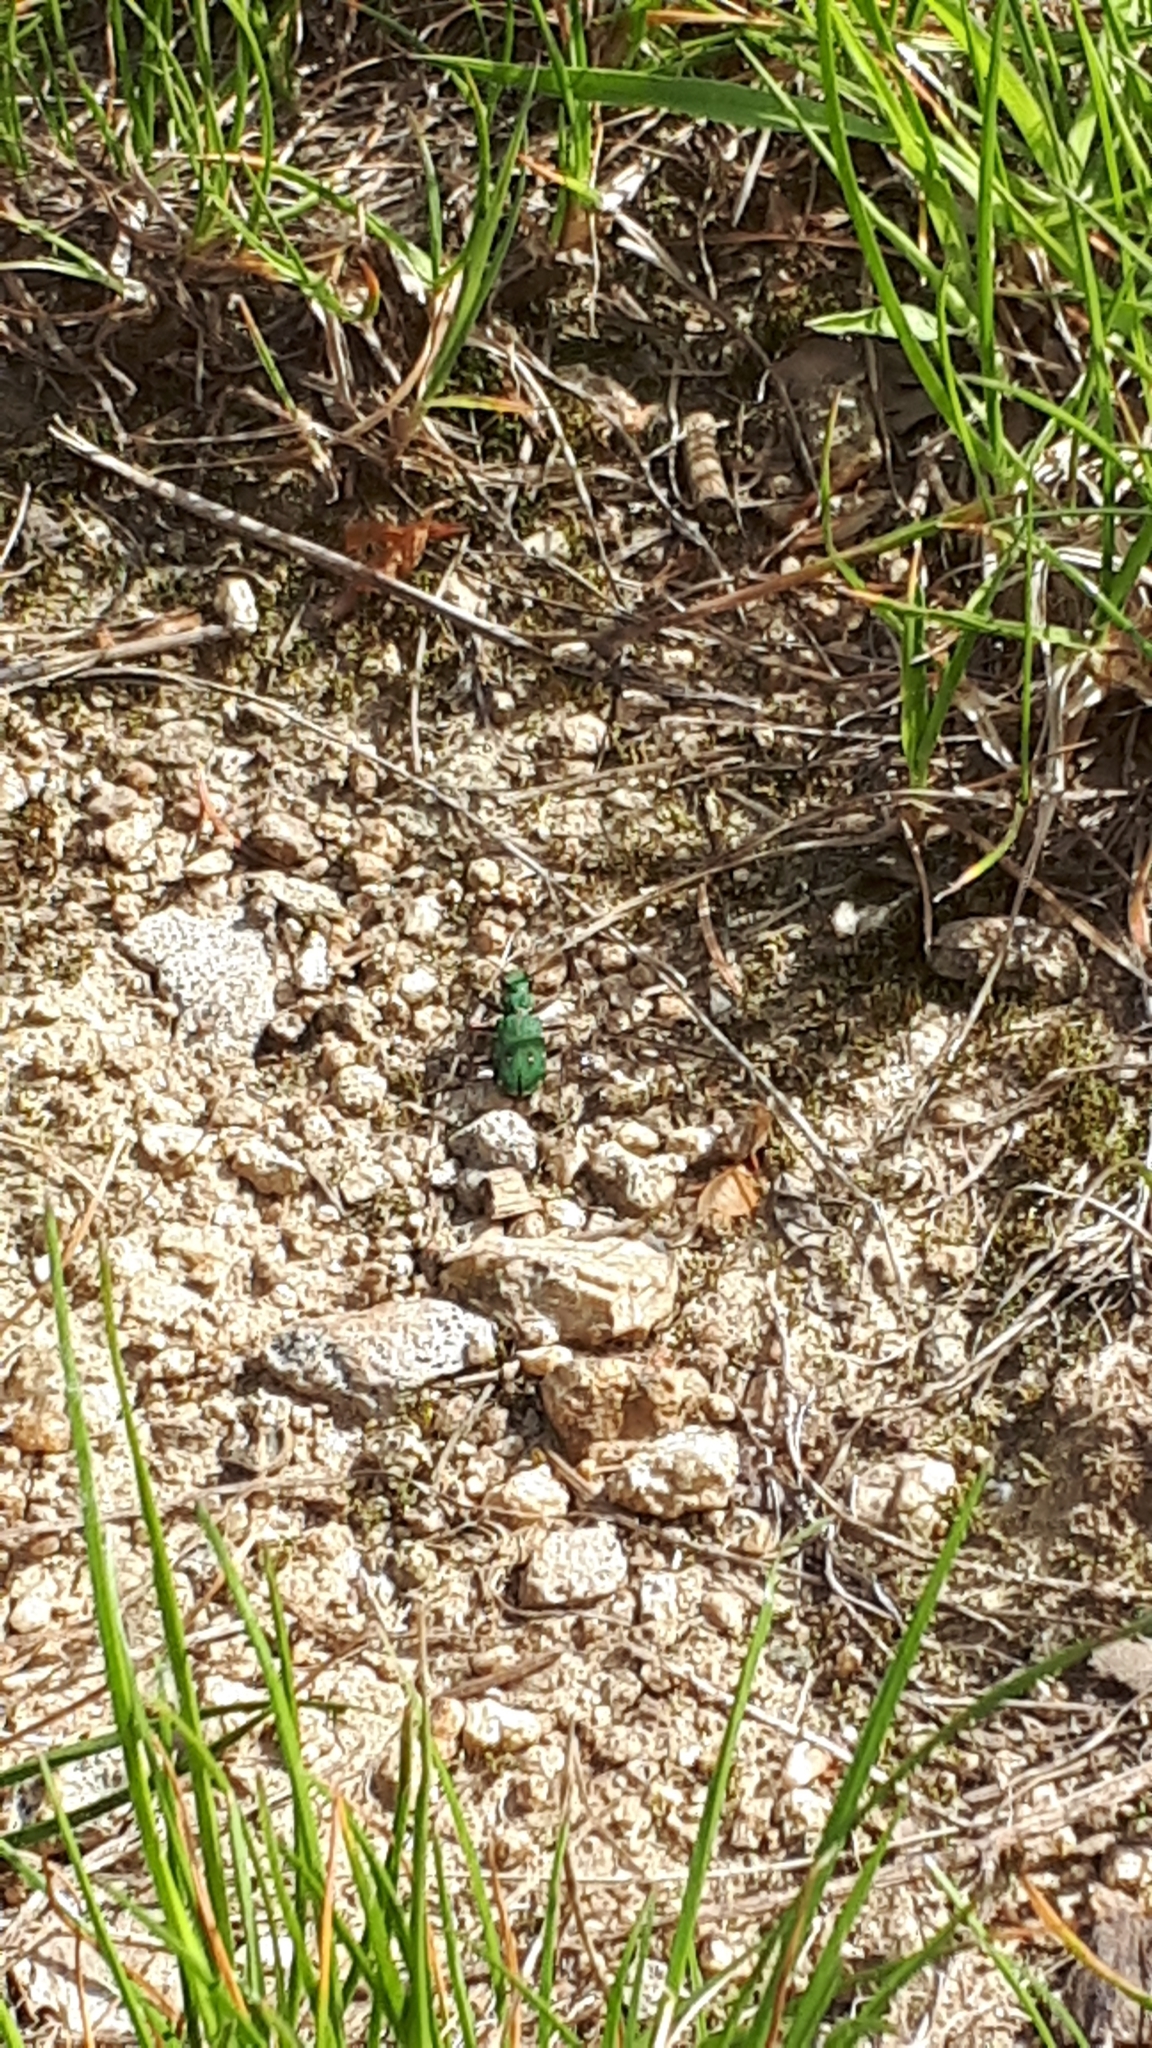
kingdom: Animalia
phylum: Arthropoda
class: Insecta
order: Coleoptera
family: Carabidae
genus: Cicindela
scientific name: Cicindela campestris
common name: Common tiger beetle
